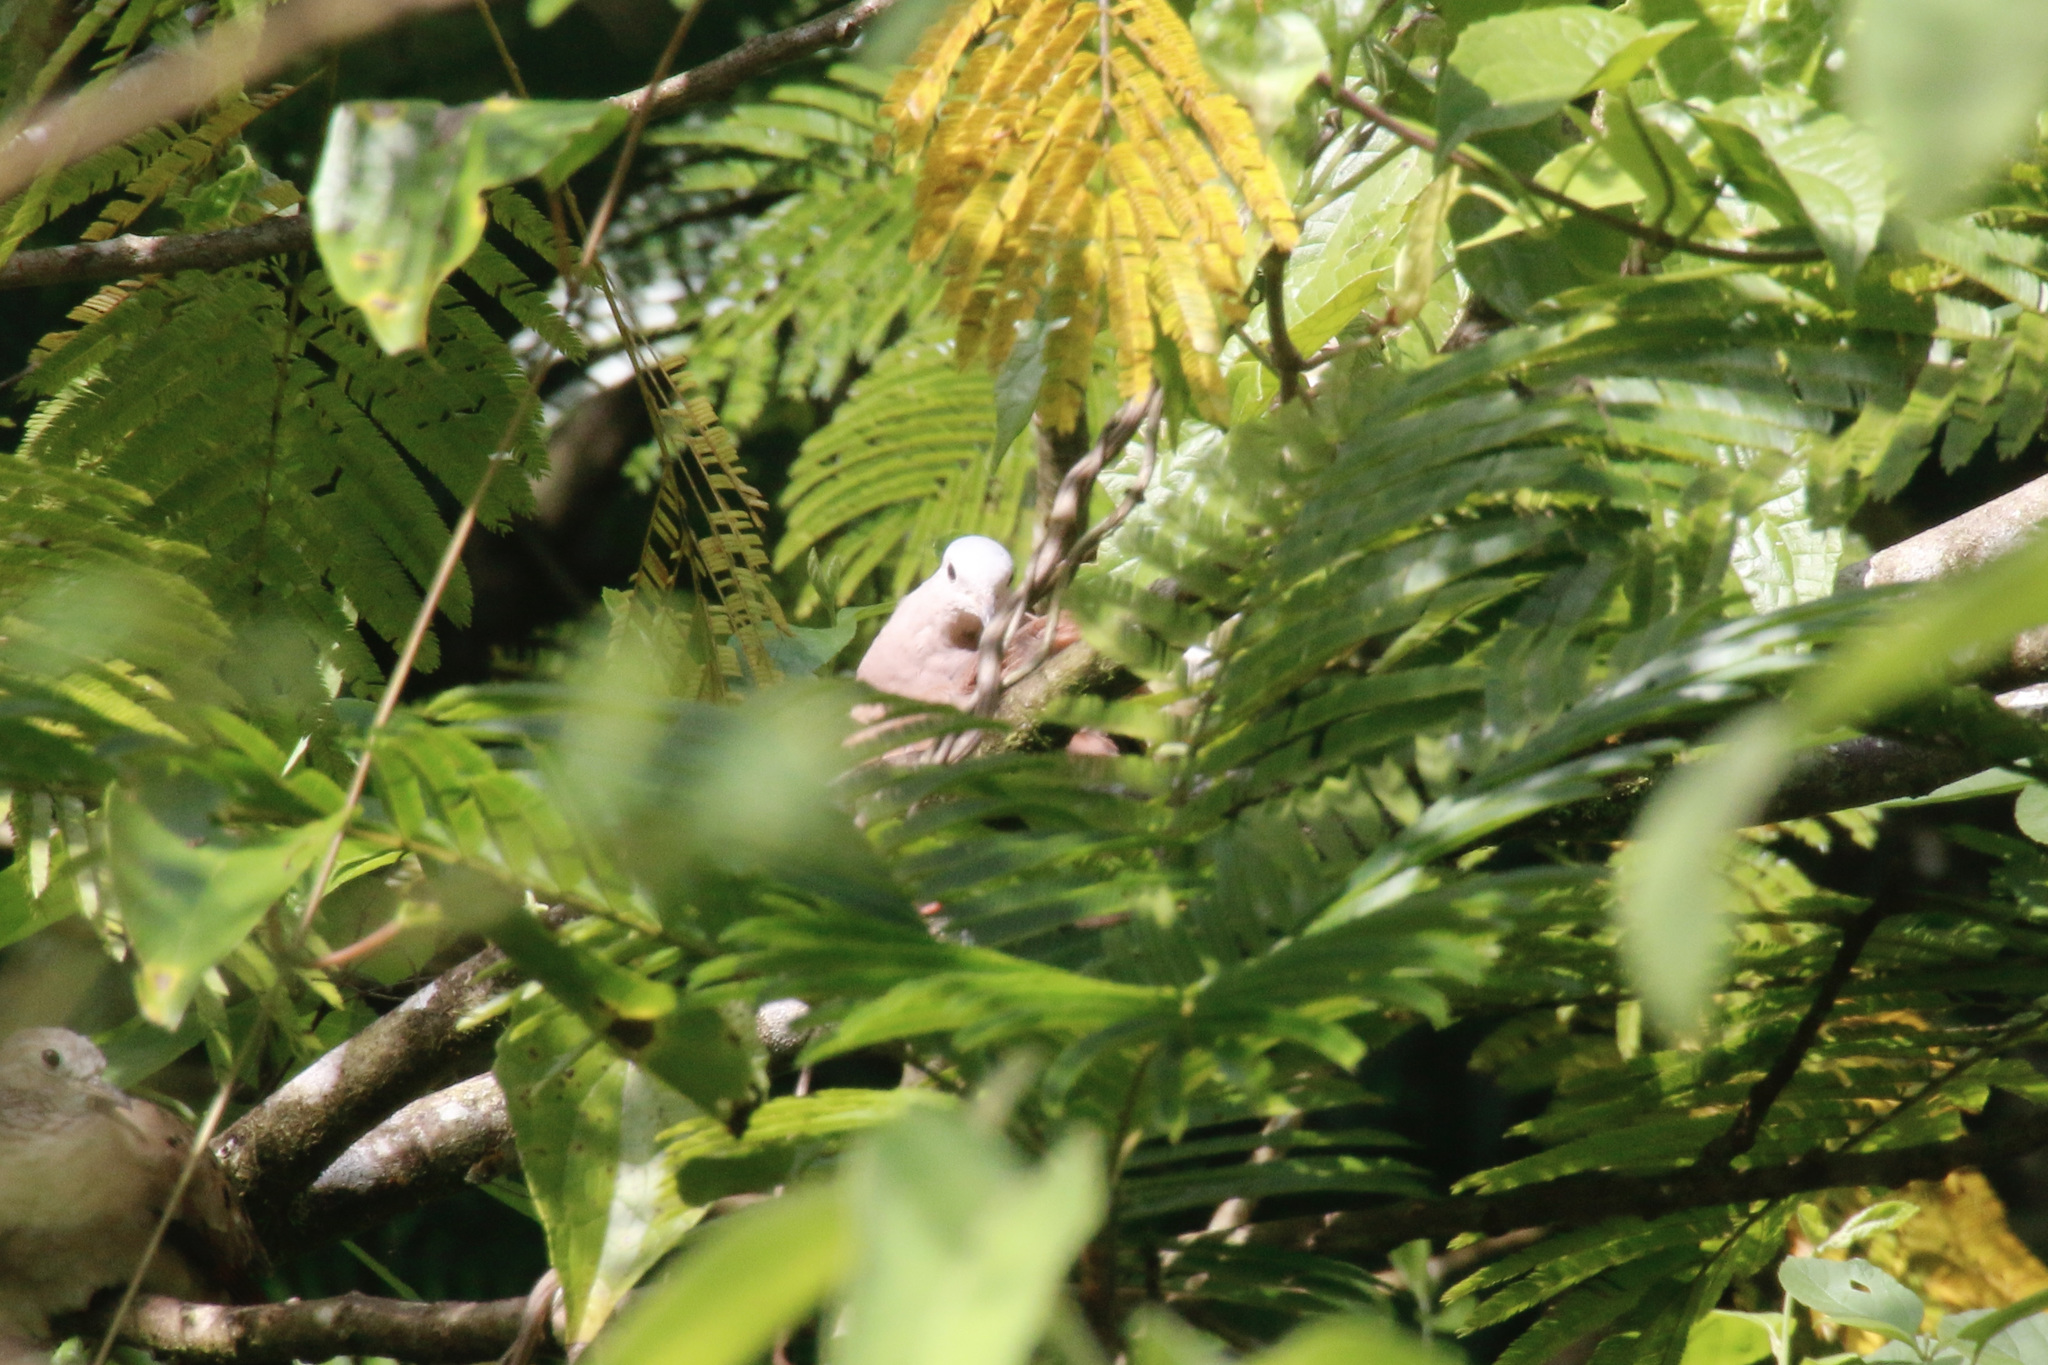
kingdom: Animalia
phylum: Chordata
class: Aves
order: Columbiformes
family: Columbidae
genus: Columbina
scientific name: Columbina talpacoti
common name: Ruddy ground dove
